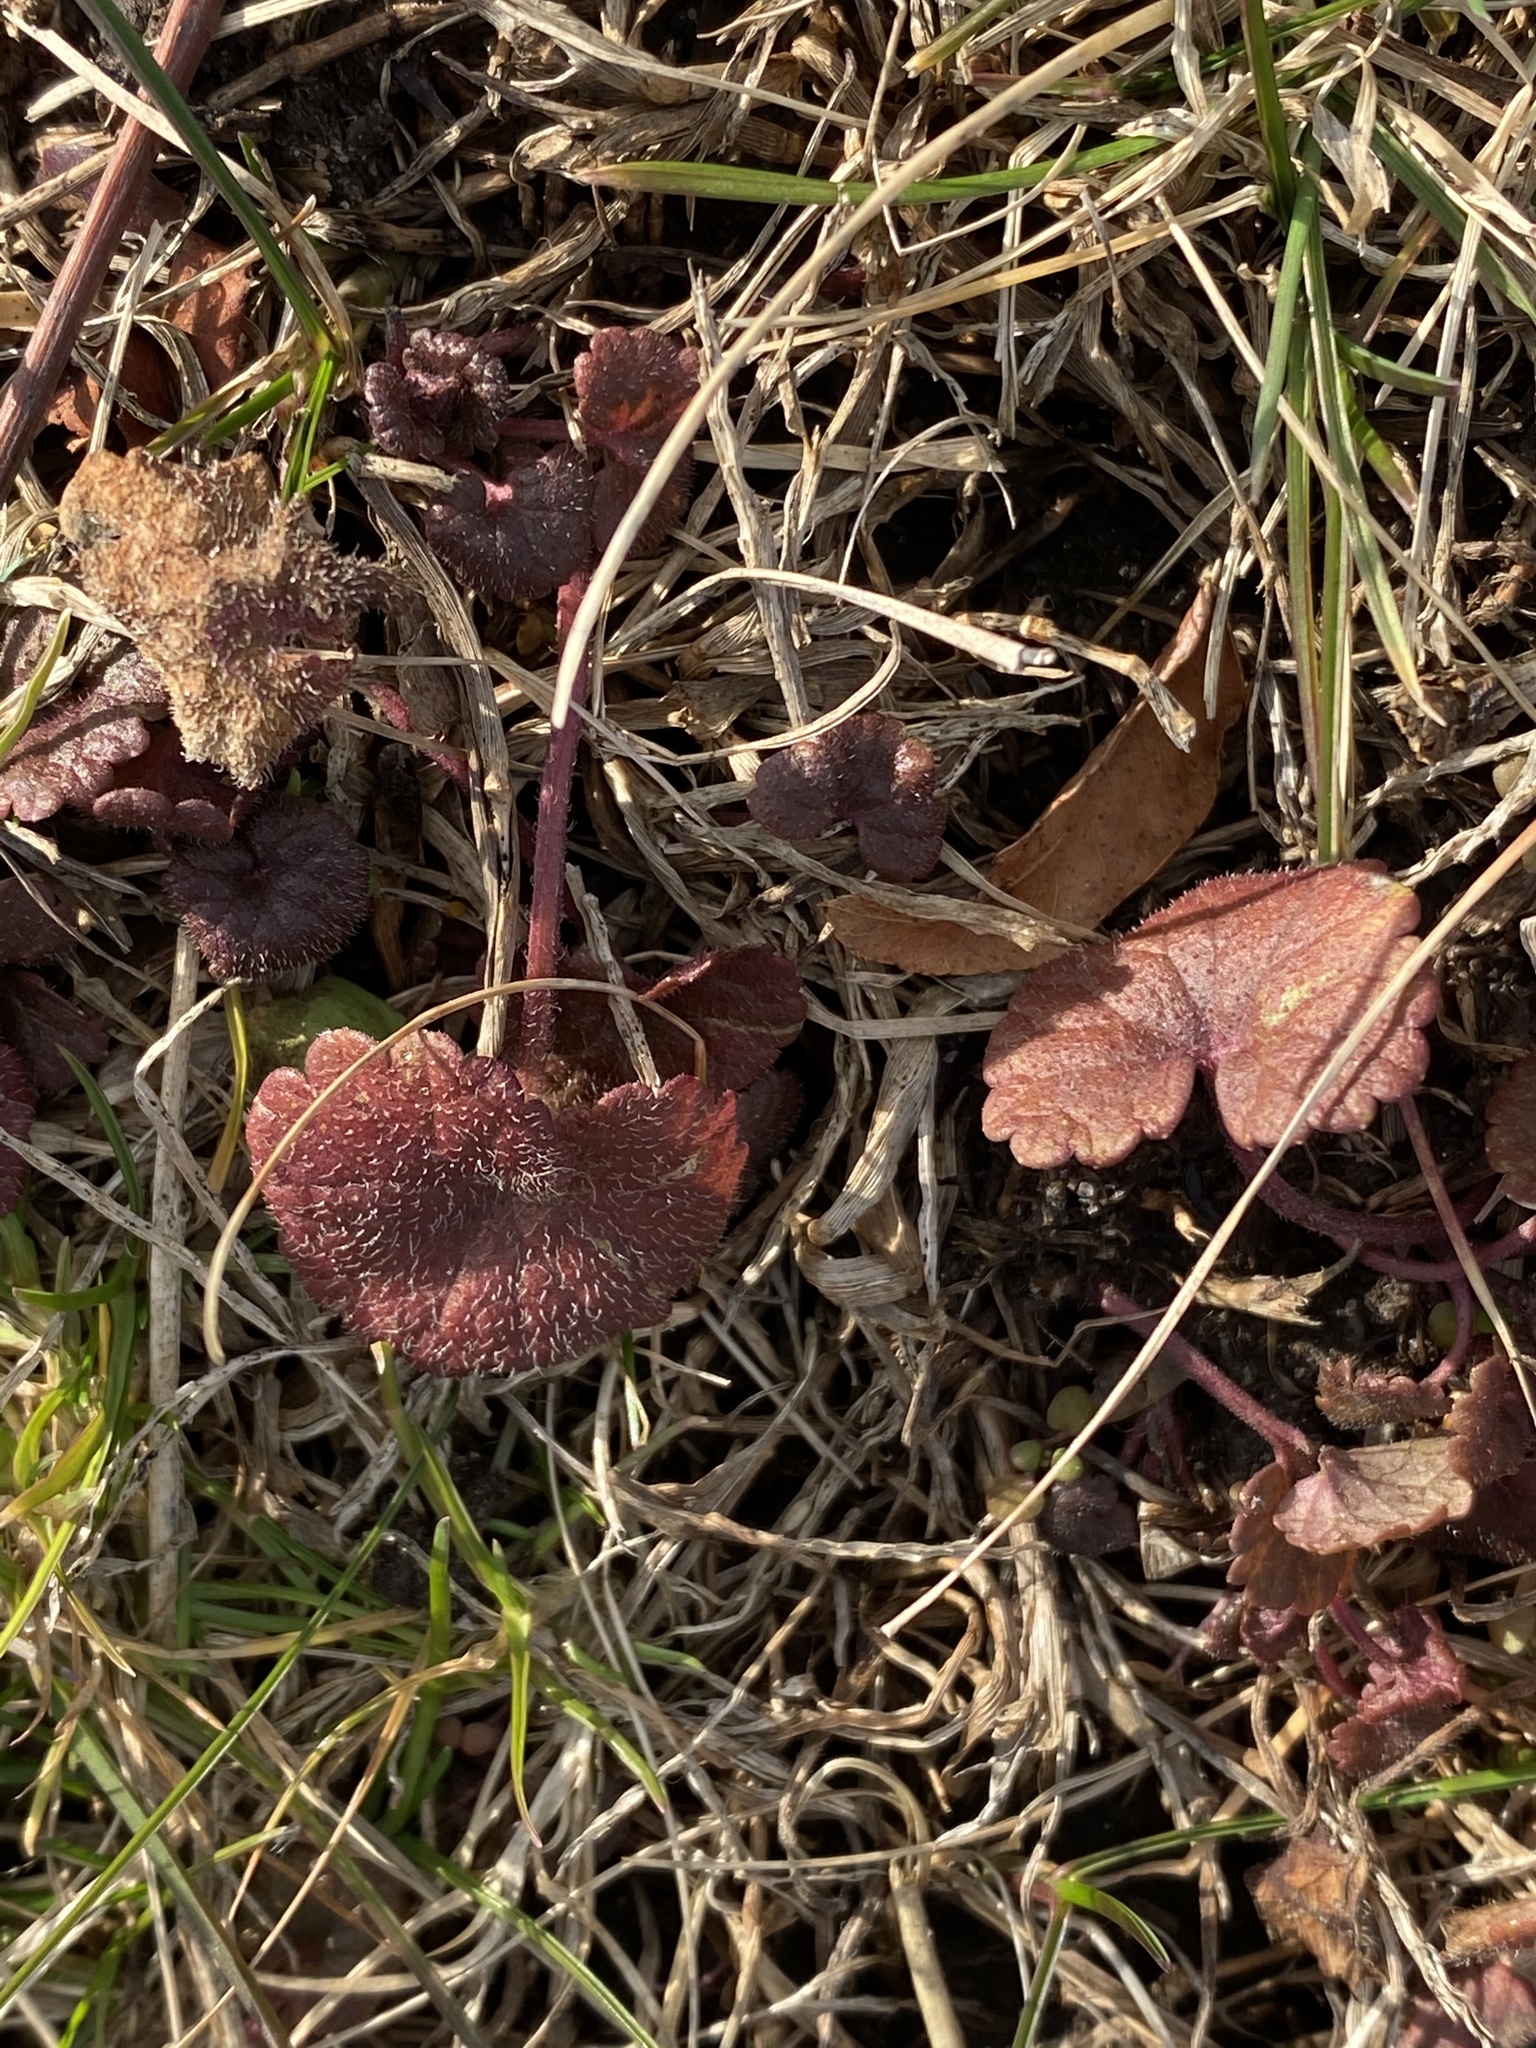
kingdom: Plantae
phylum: Tracheophyta
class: Magnoliopsida
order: Lamiales
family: Lamiaceae
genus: Glechoma
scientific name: Glechoma hederacea
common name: Ground ivy
